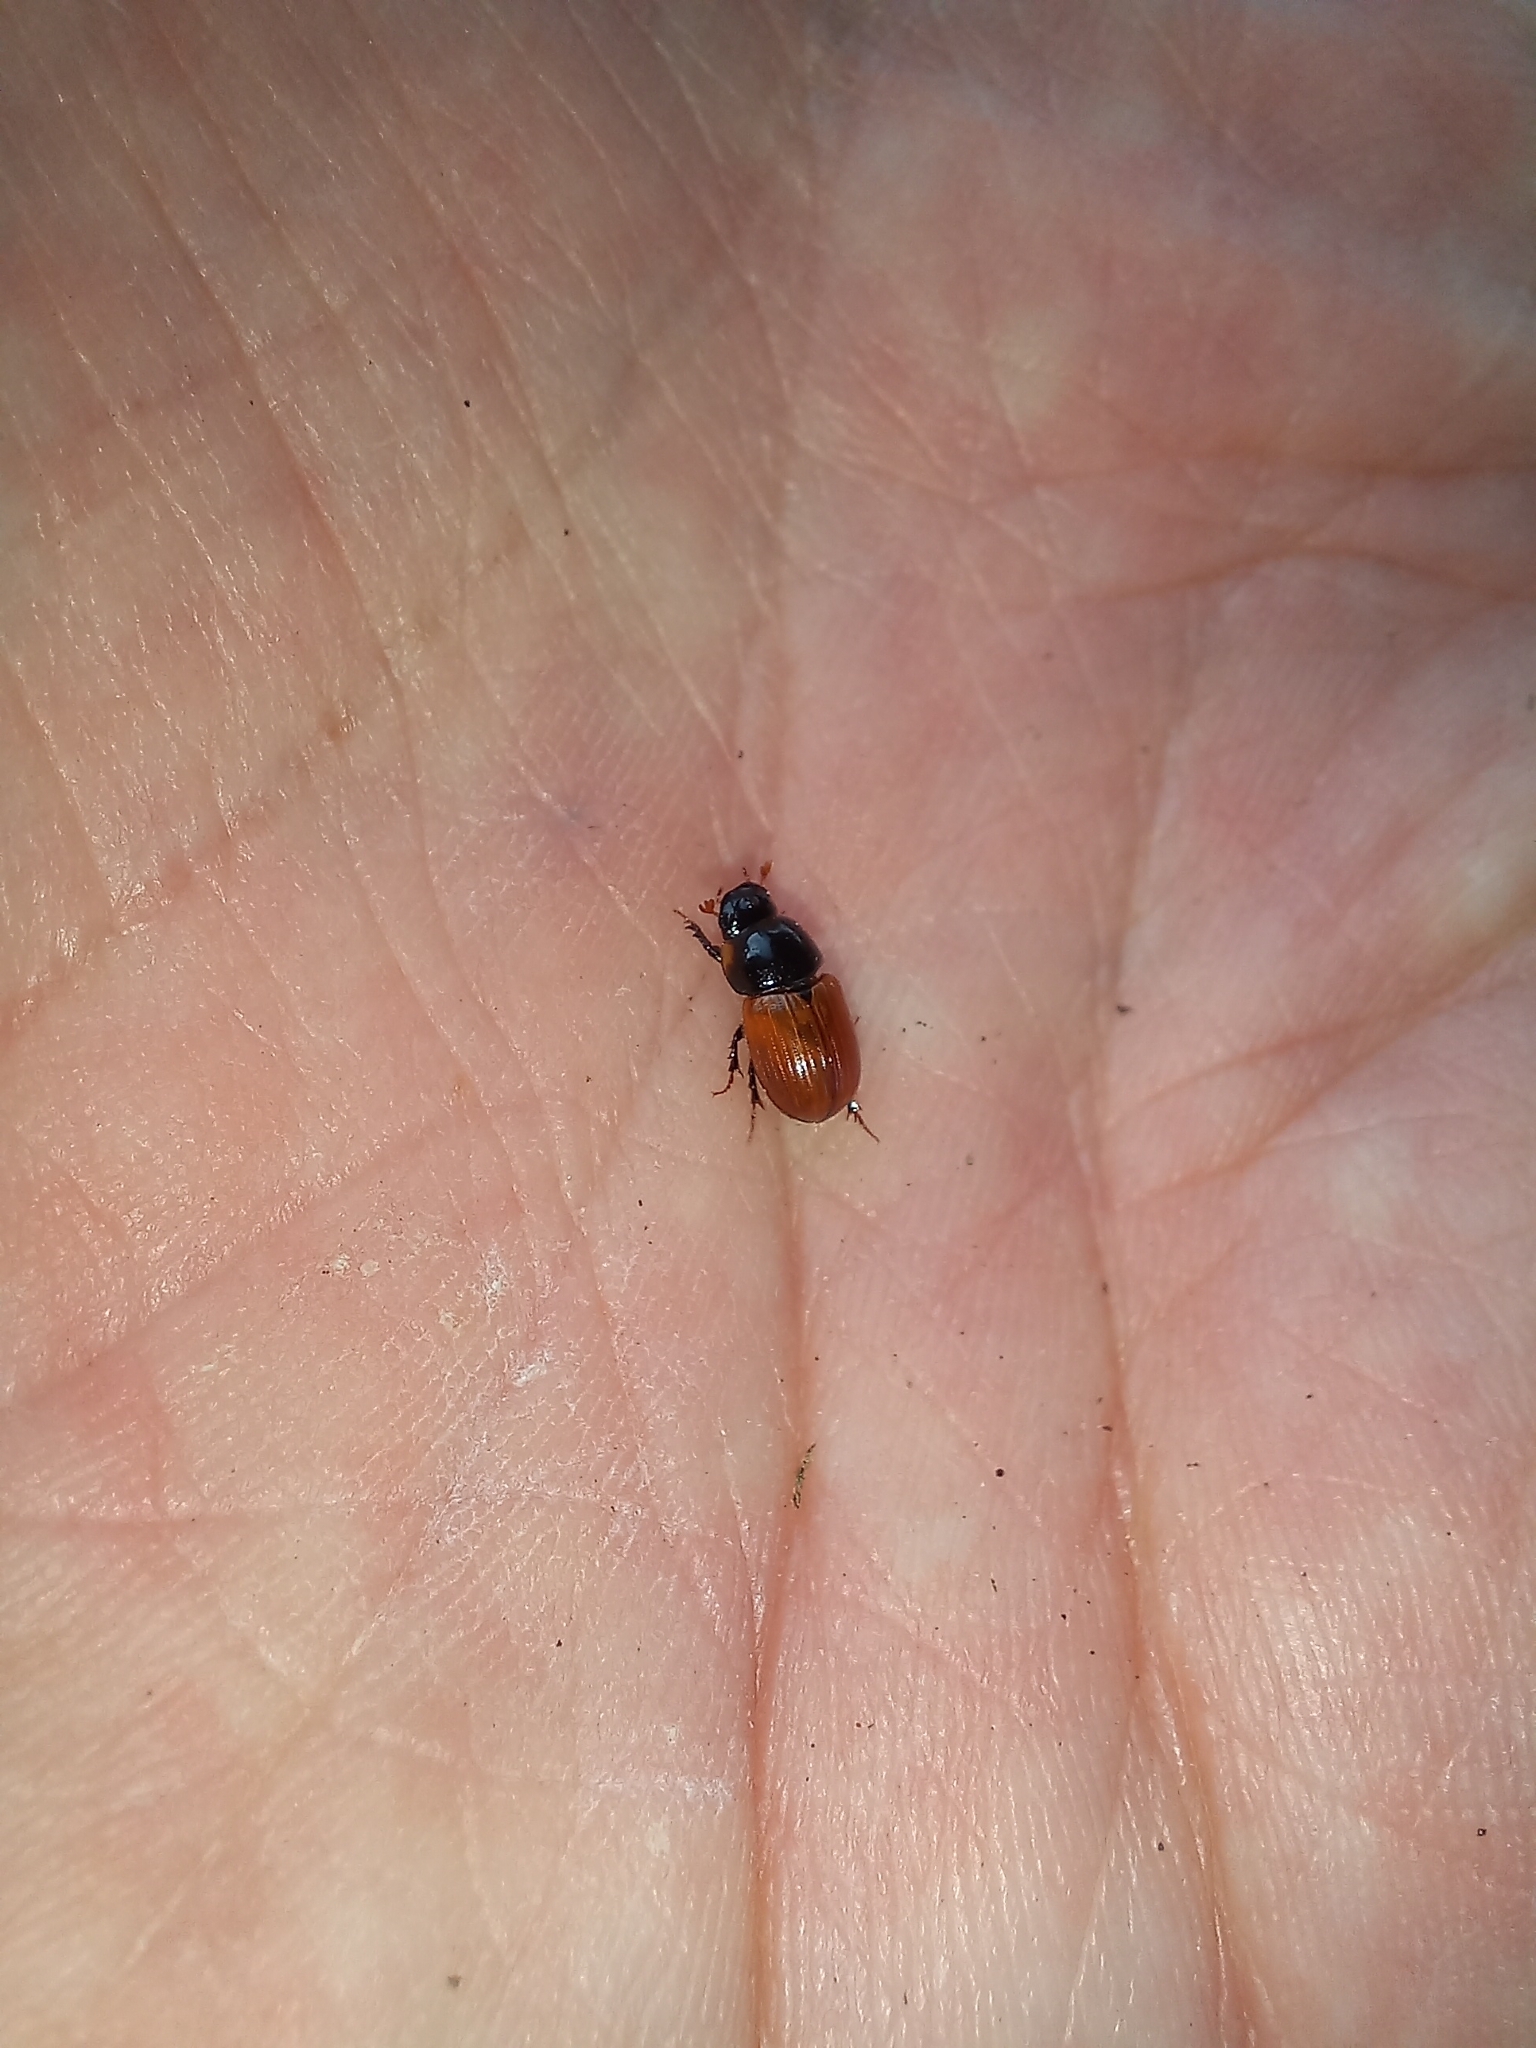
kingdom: Animalia
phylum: Arthropoda
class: Insecta
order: Coleoptera
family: Scarabaeidae
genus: Aphodius
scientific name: Aphodius fimetarius
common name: Common dung beetle
